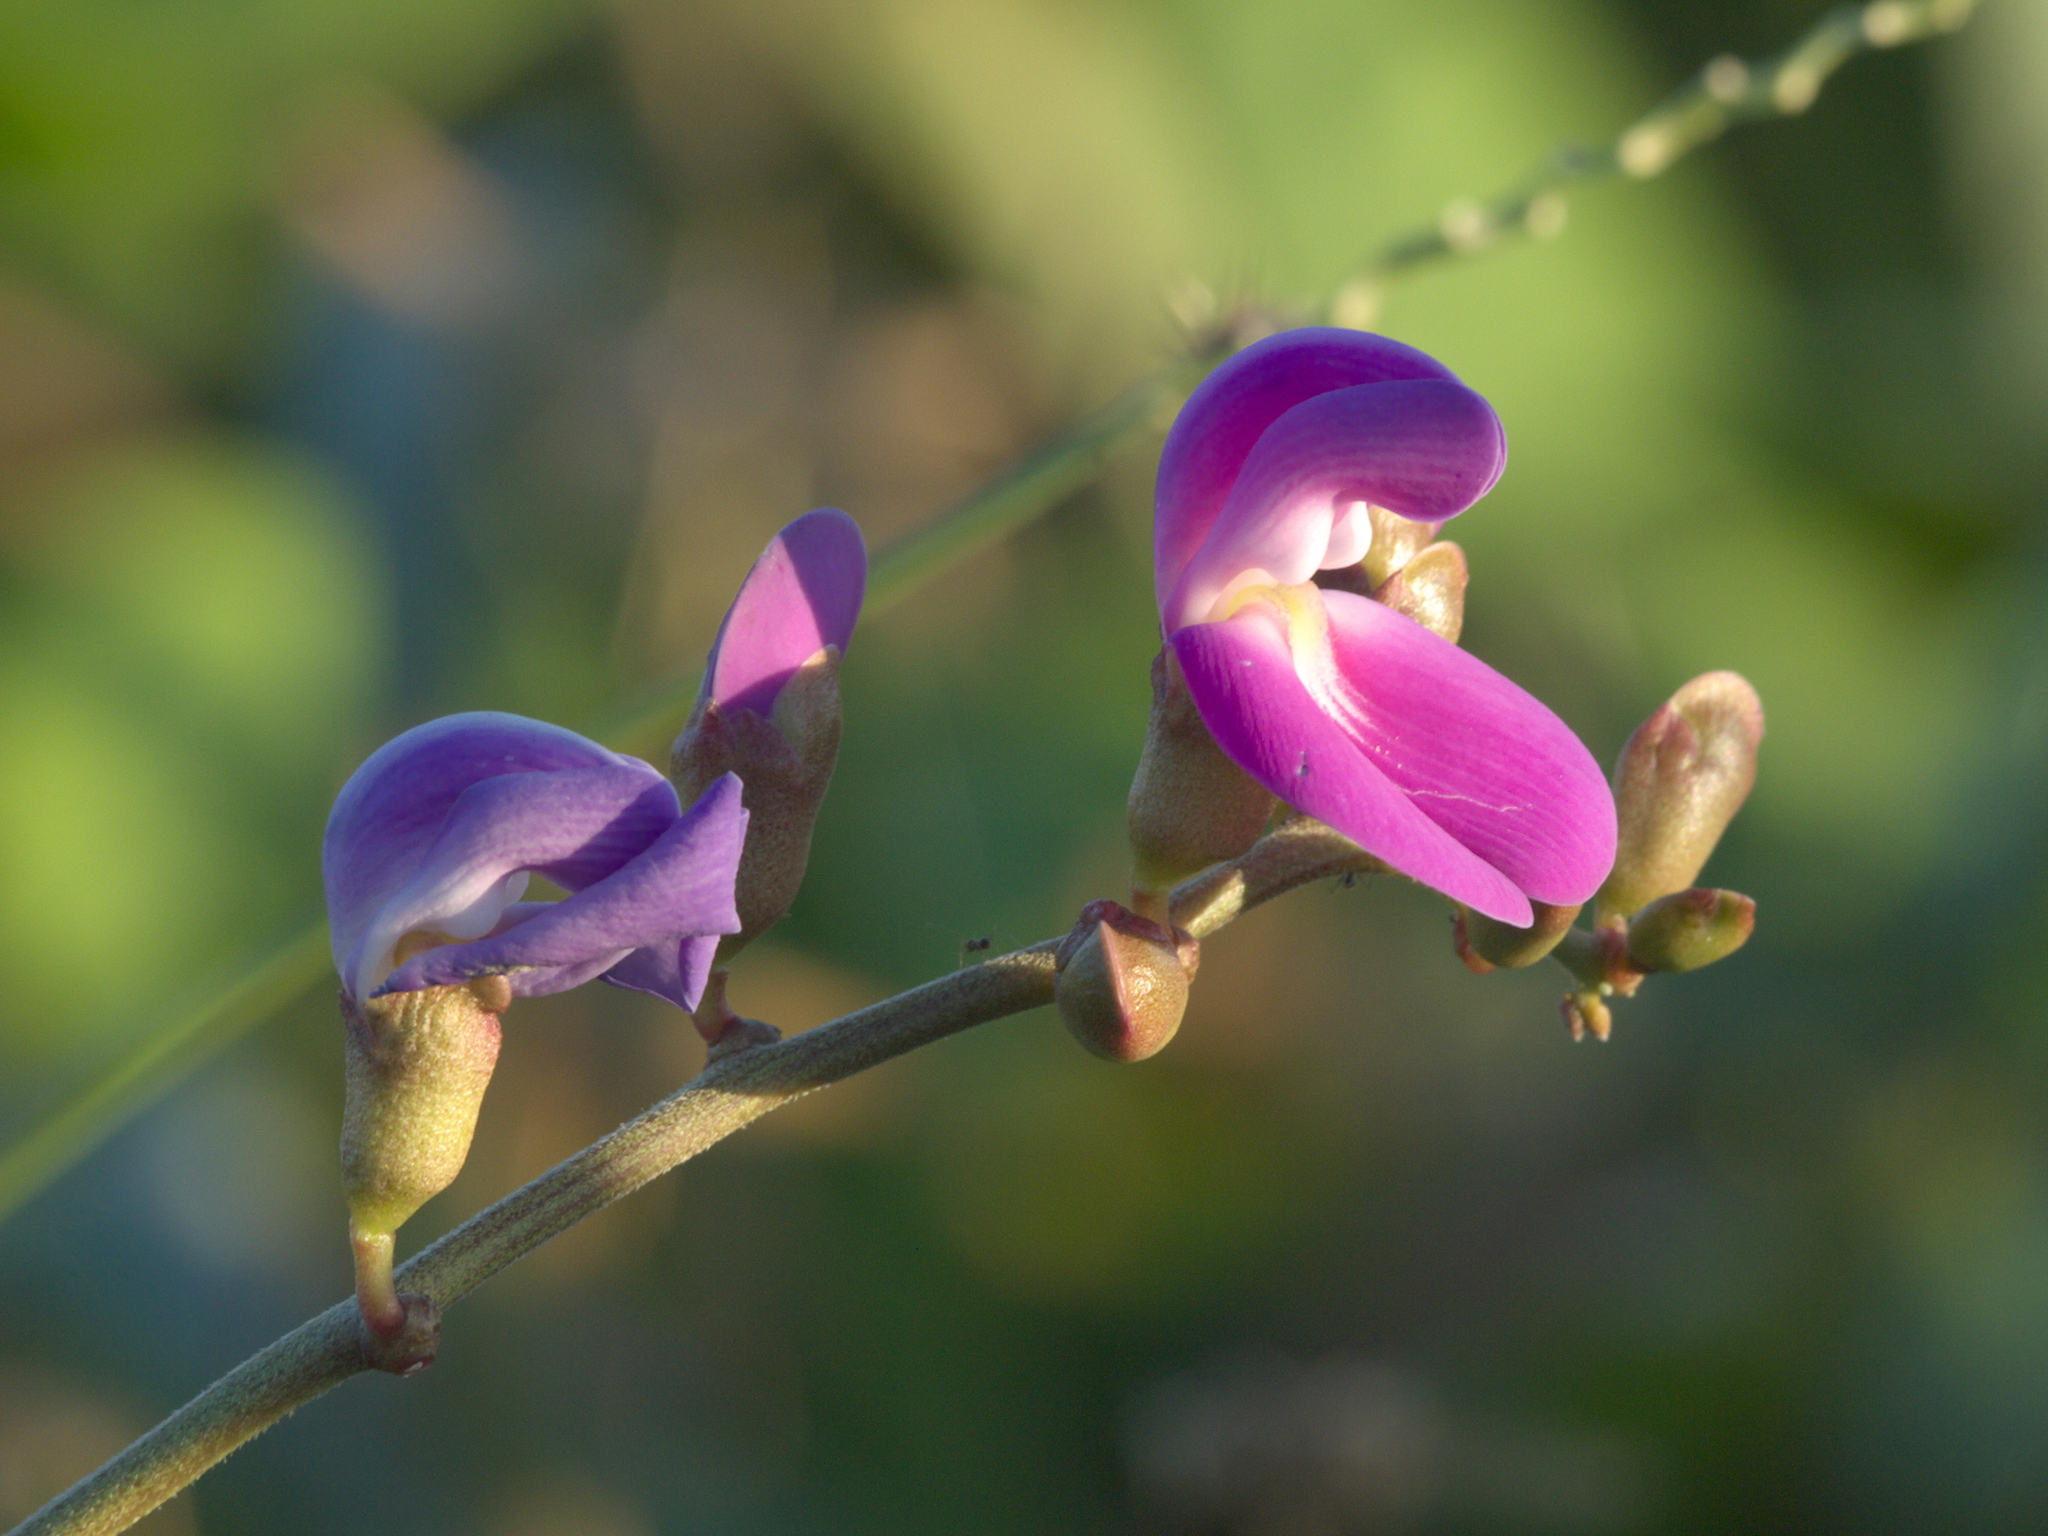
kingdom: Plantae
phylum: Tracheophyta
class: Magnoliopsida
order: Fabales
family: Fabaceae
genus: Canavalia
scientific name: Canavalia rosea
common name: Beach-bean
